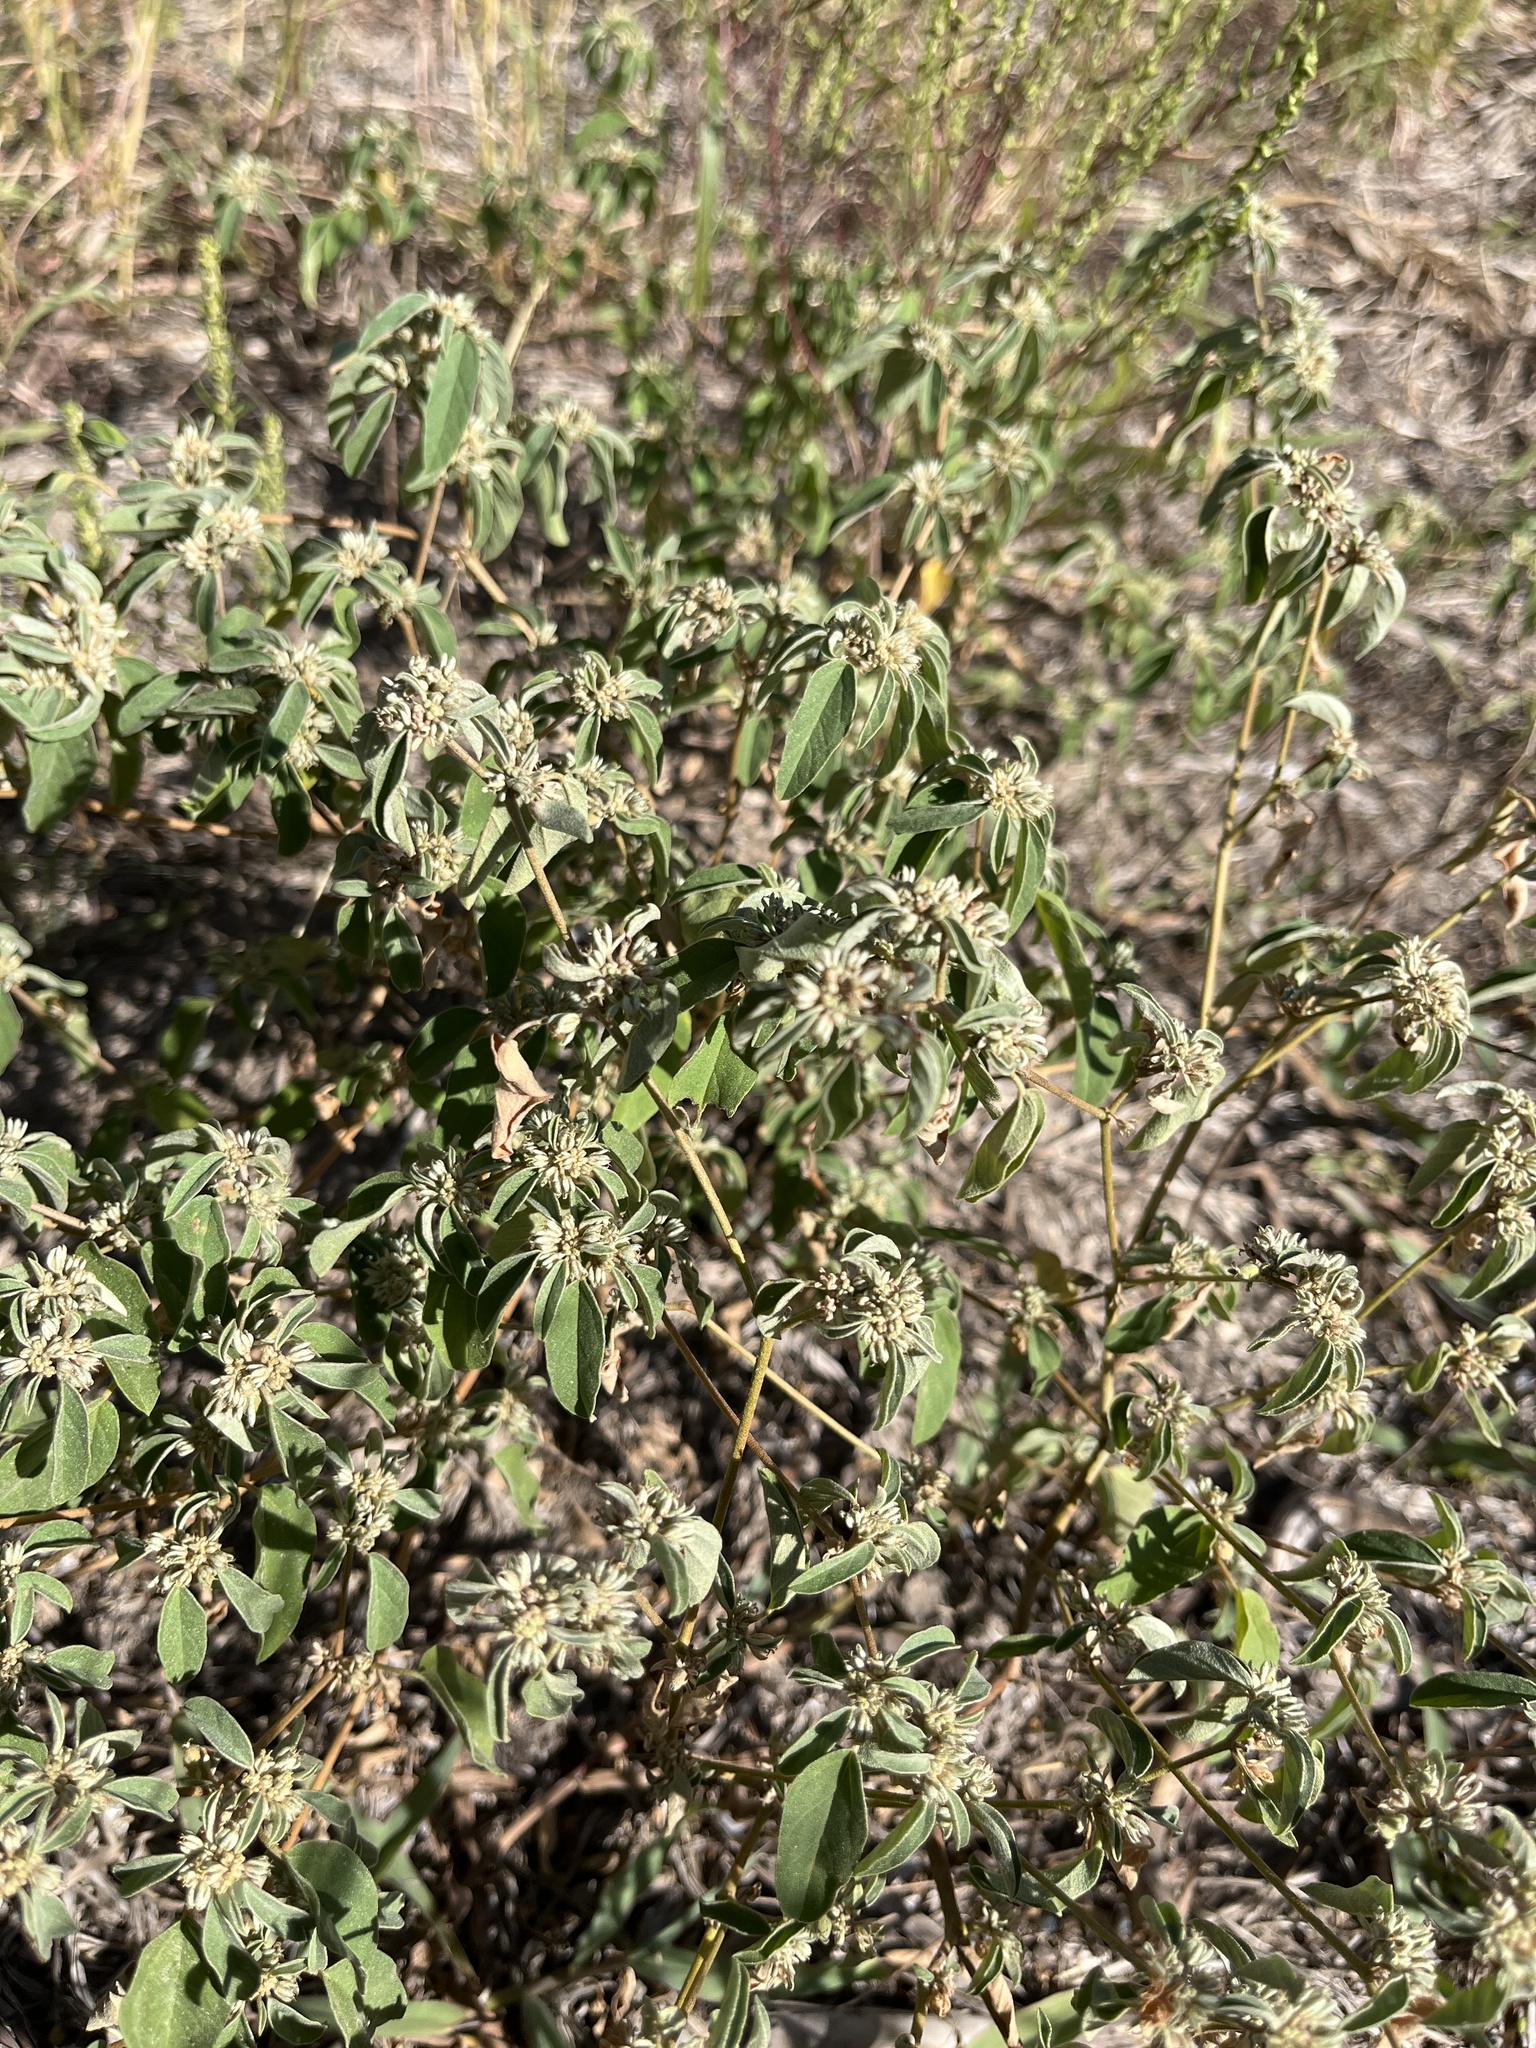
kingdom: Plantae
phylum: Tracheophyta
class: Magnoliopsida
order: Malpighiales
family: Euphorbiaceae
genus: Croton
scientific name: Croton monanthogynus
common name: One-seed croton
